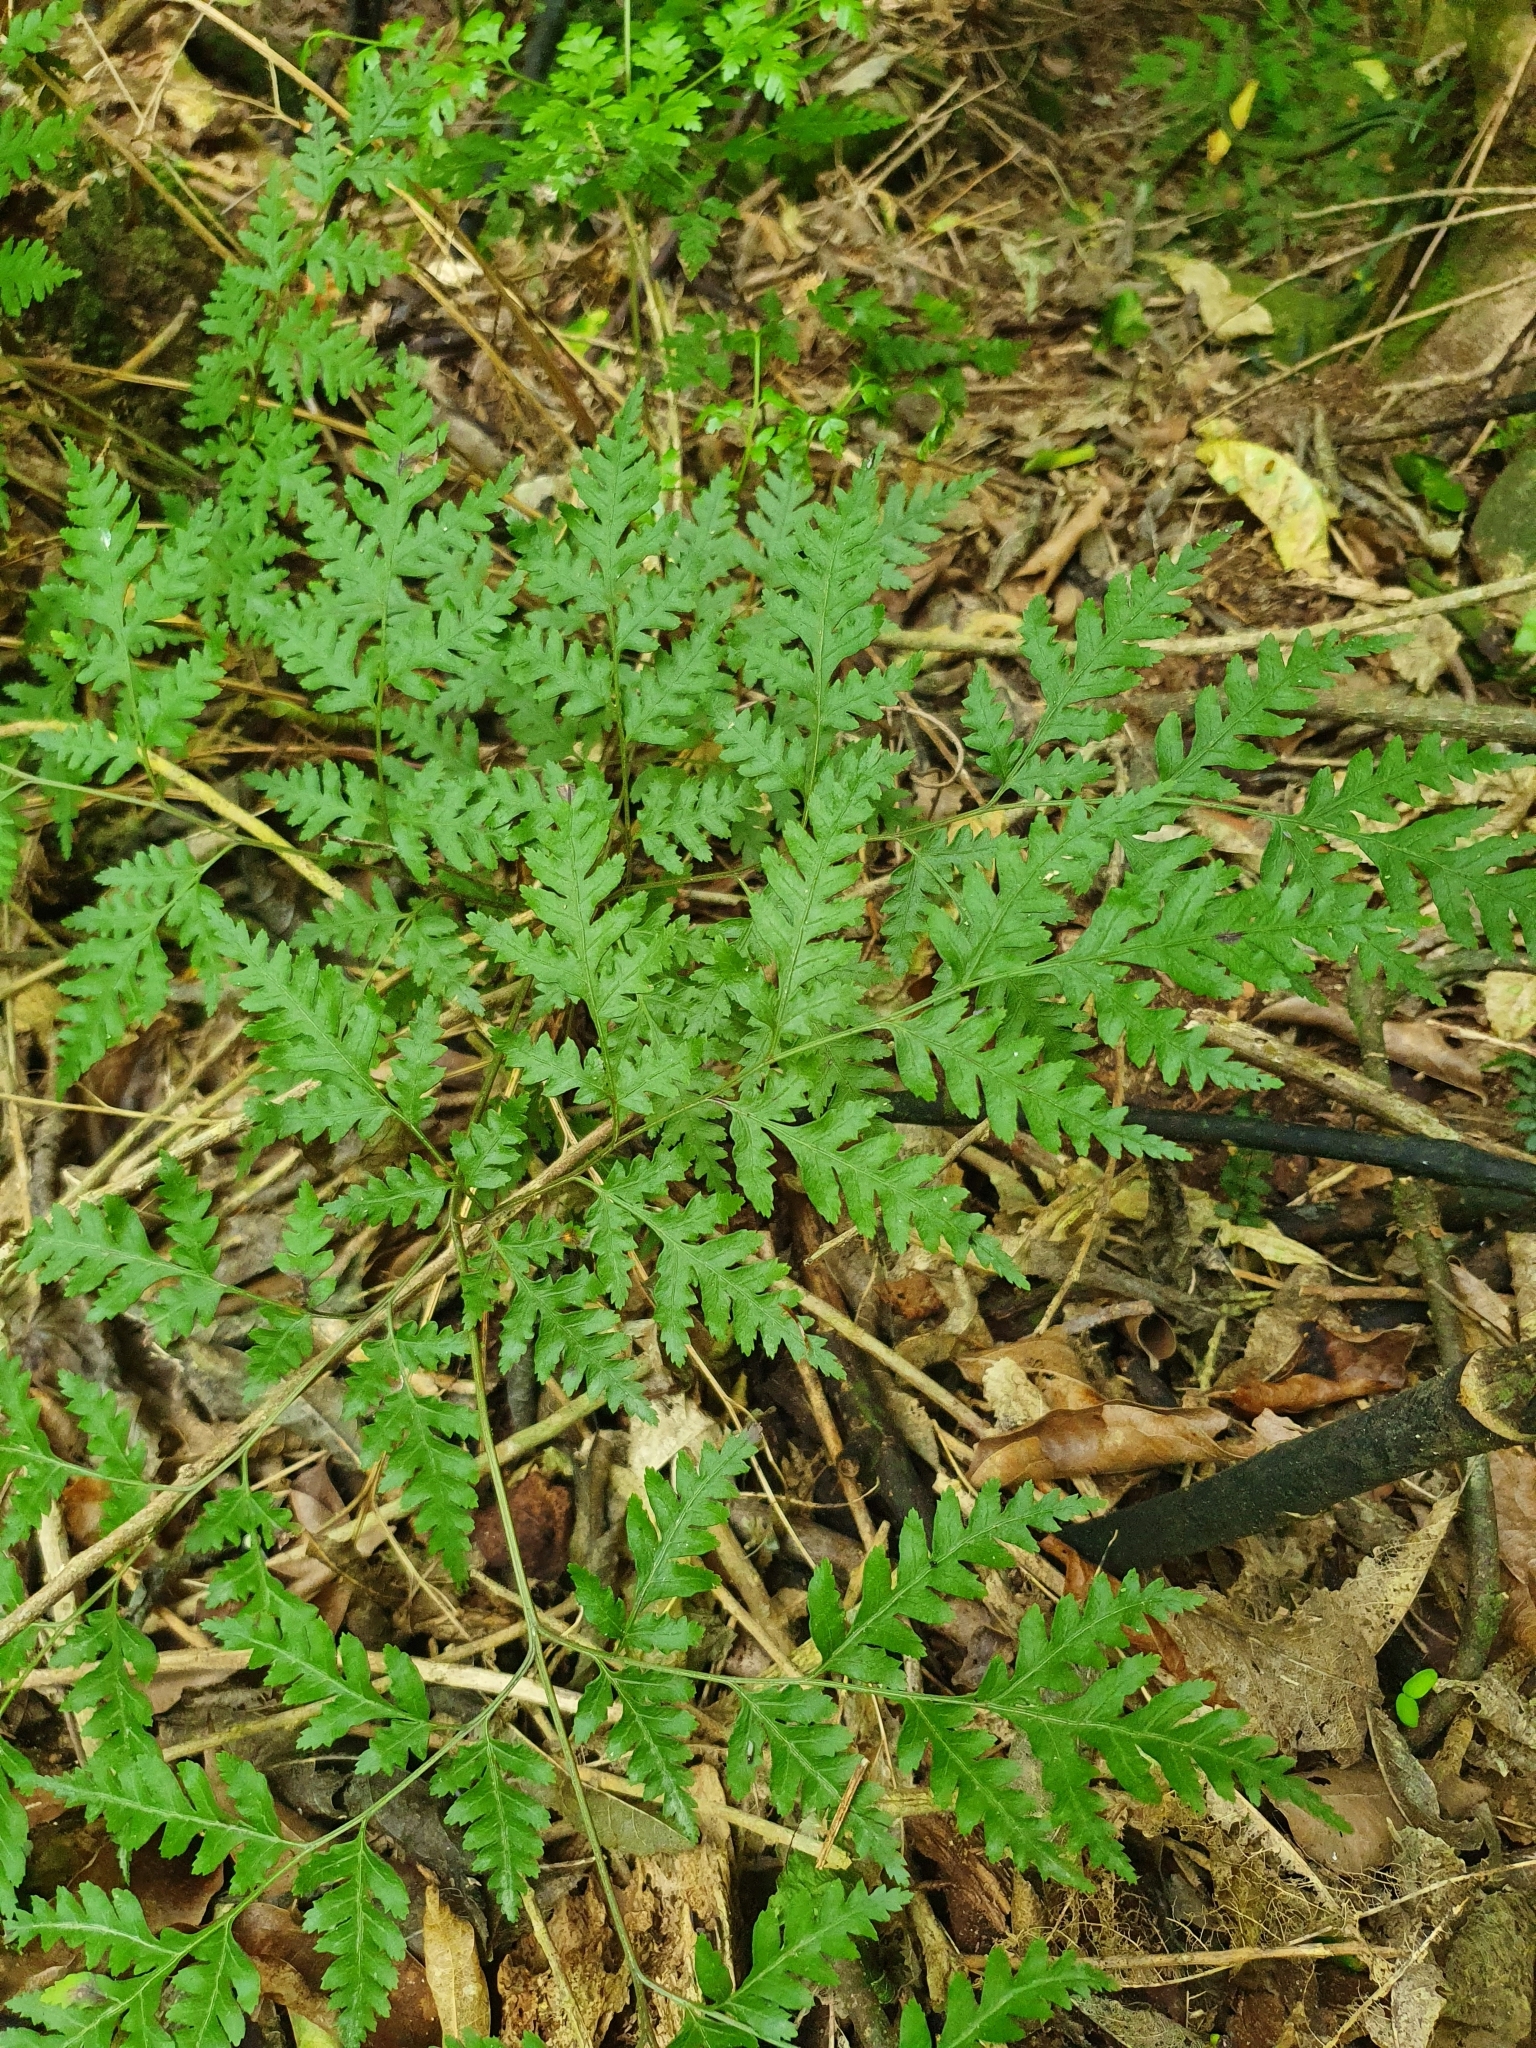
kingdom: Plantae
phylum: Tracheophyta
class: Polypodiopsida
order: Polypodiales
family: Pteridaceae
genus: Pteris
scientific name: Pteris macilenta
